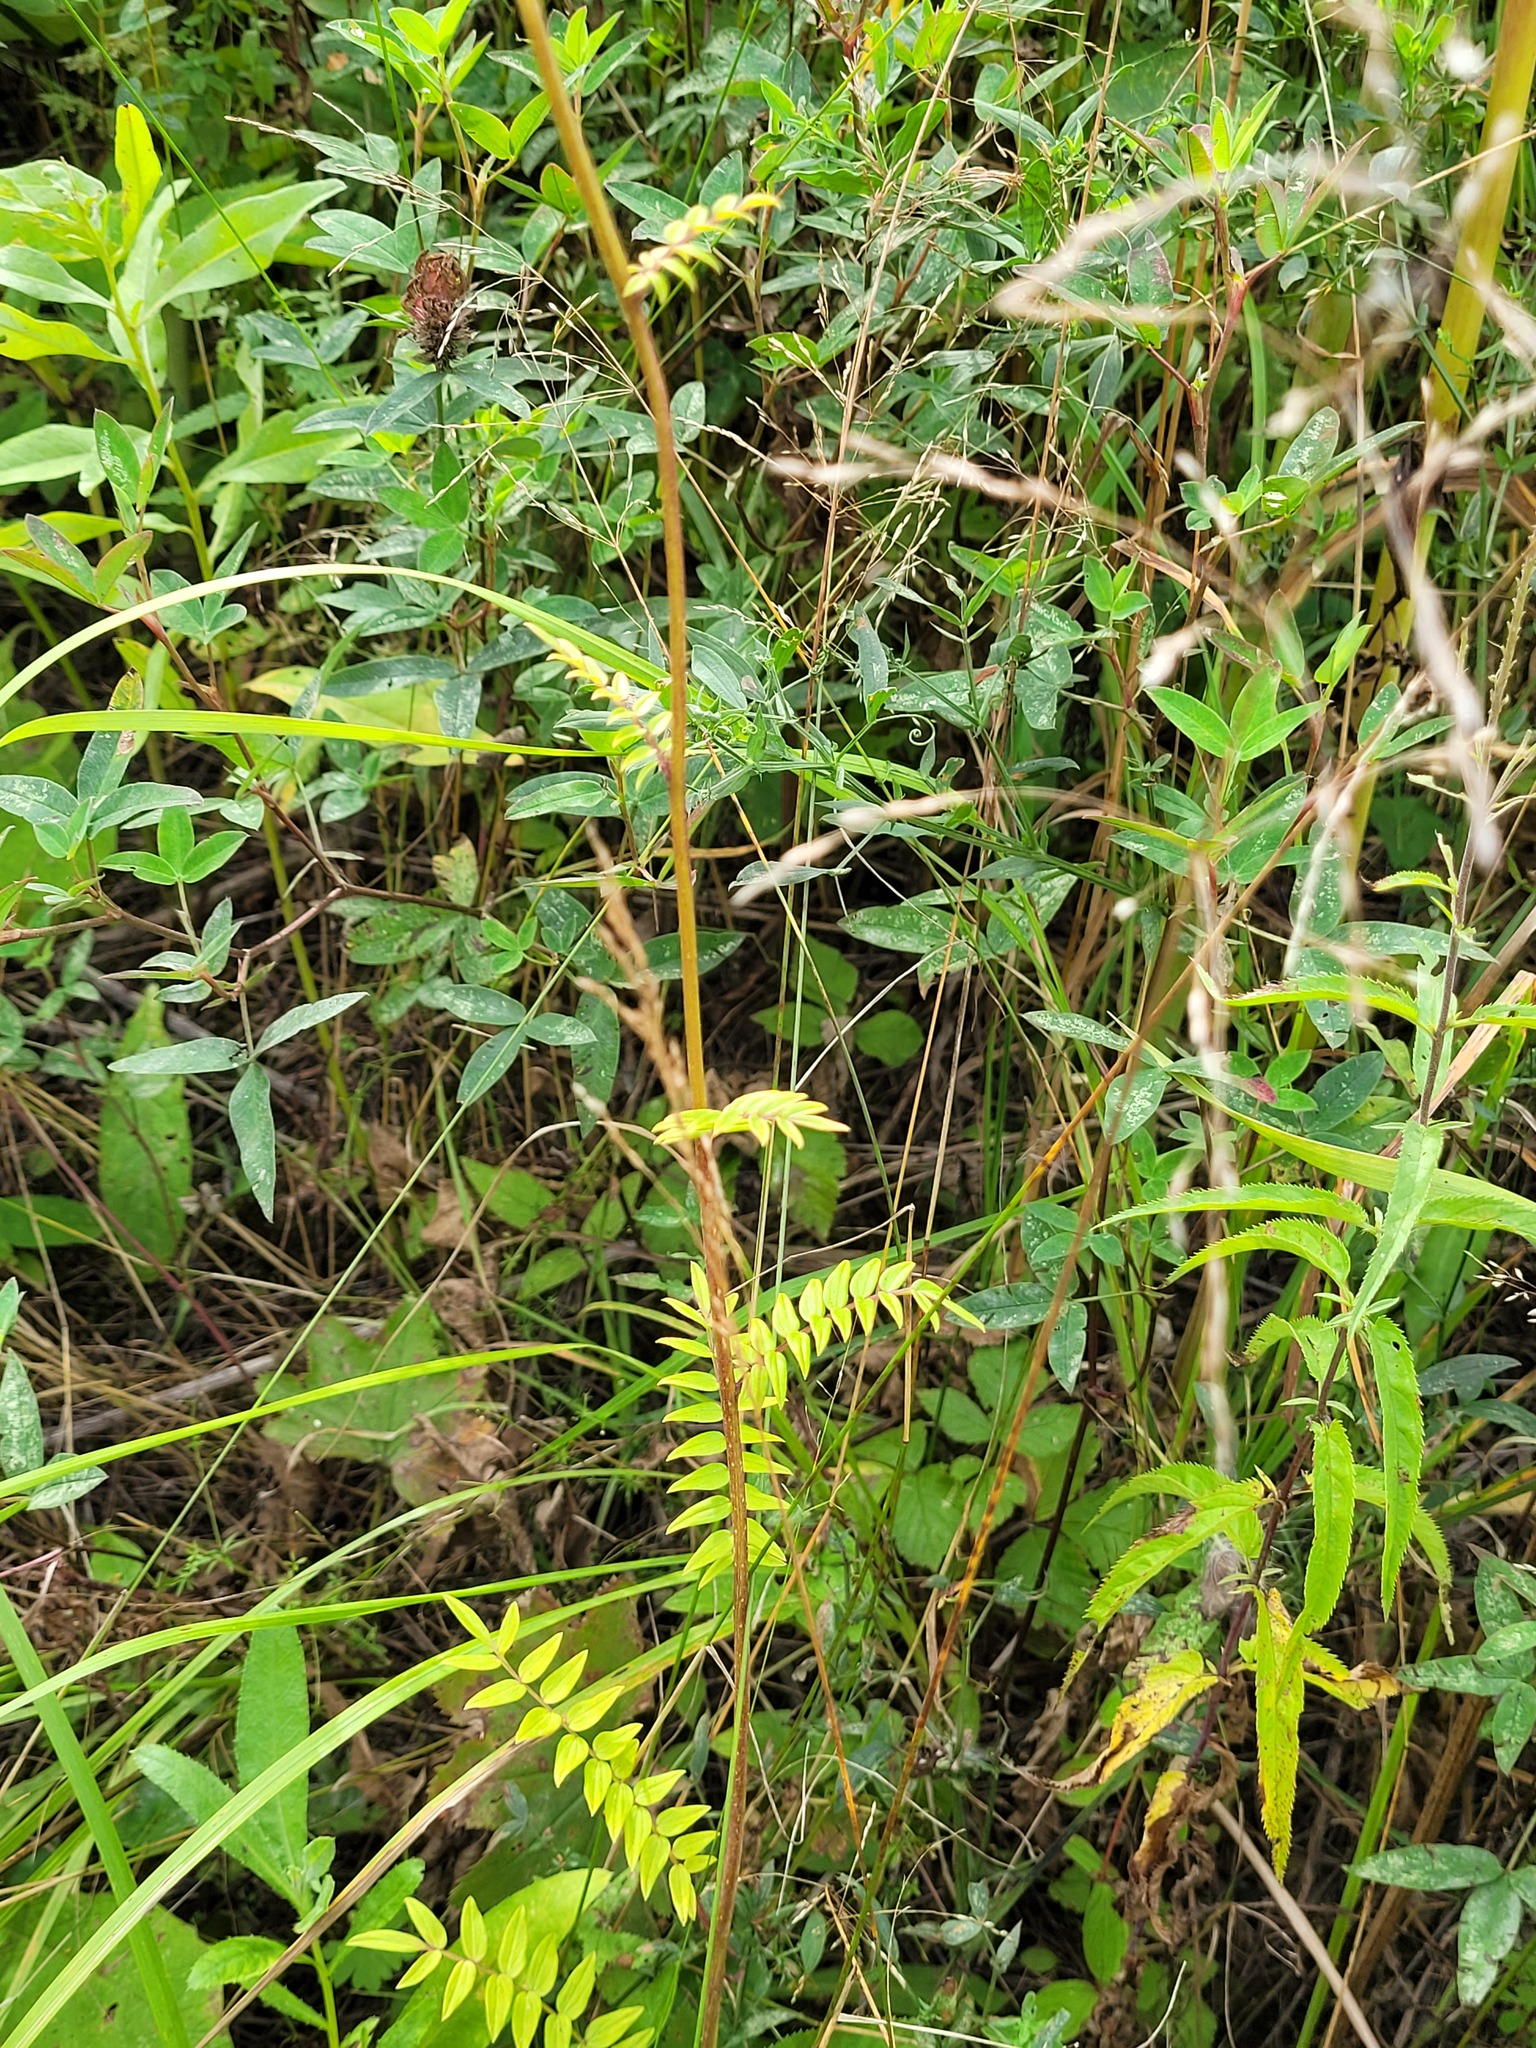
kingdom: Plantae
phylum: Tracheophyta
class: Magnoliopsida
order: Ericales
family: Polemoniaceae
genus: Polemonium
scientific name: Polemonium caeruleum
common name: Jacob's-ladder
